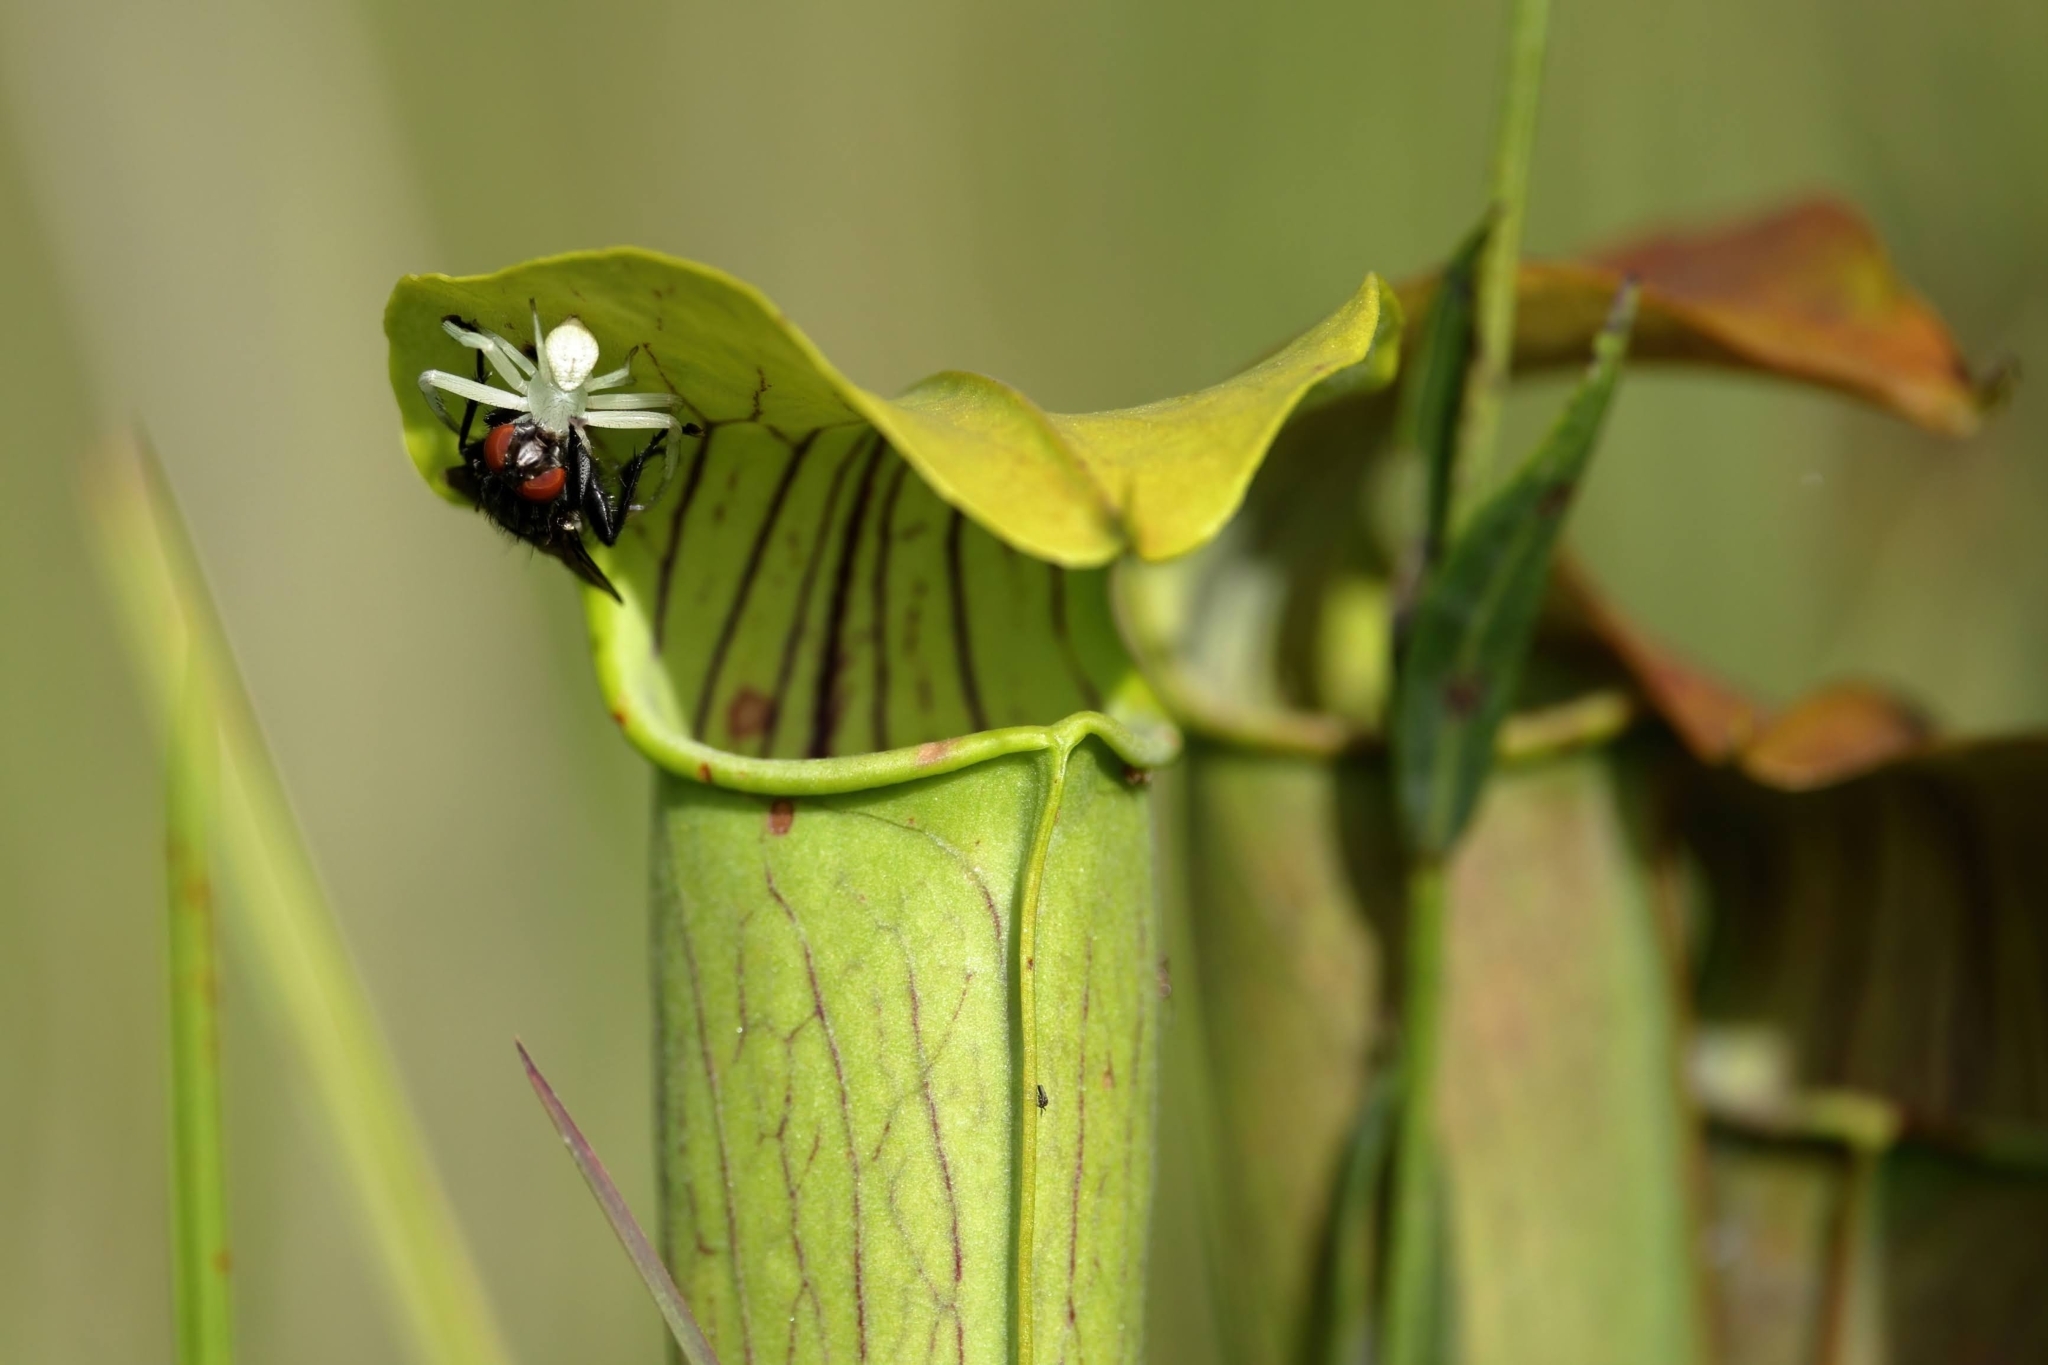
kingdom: Animalia
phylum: Arthropoda
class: Arachnida
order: Araneae
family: Thomisidae
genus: Misumessus
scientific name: Misumessus oblongus
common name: American green crab spider
